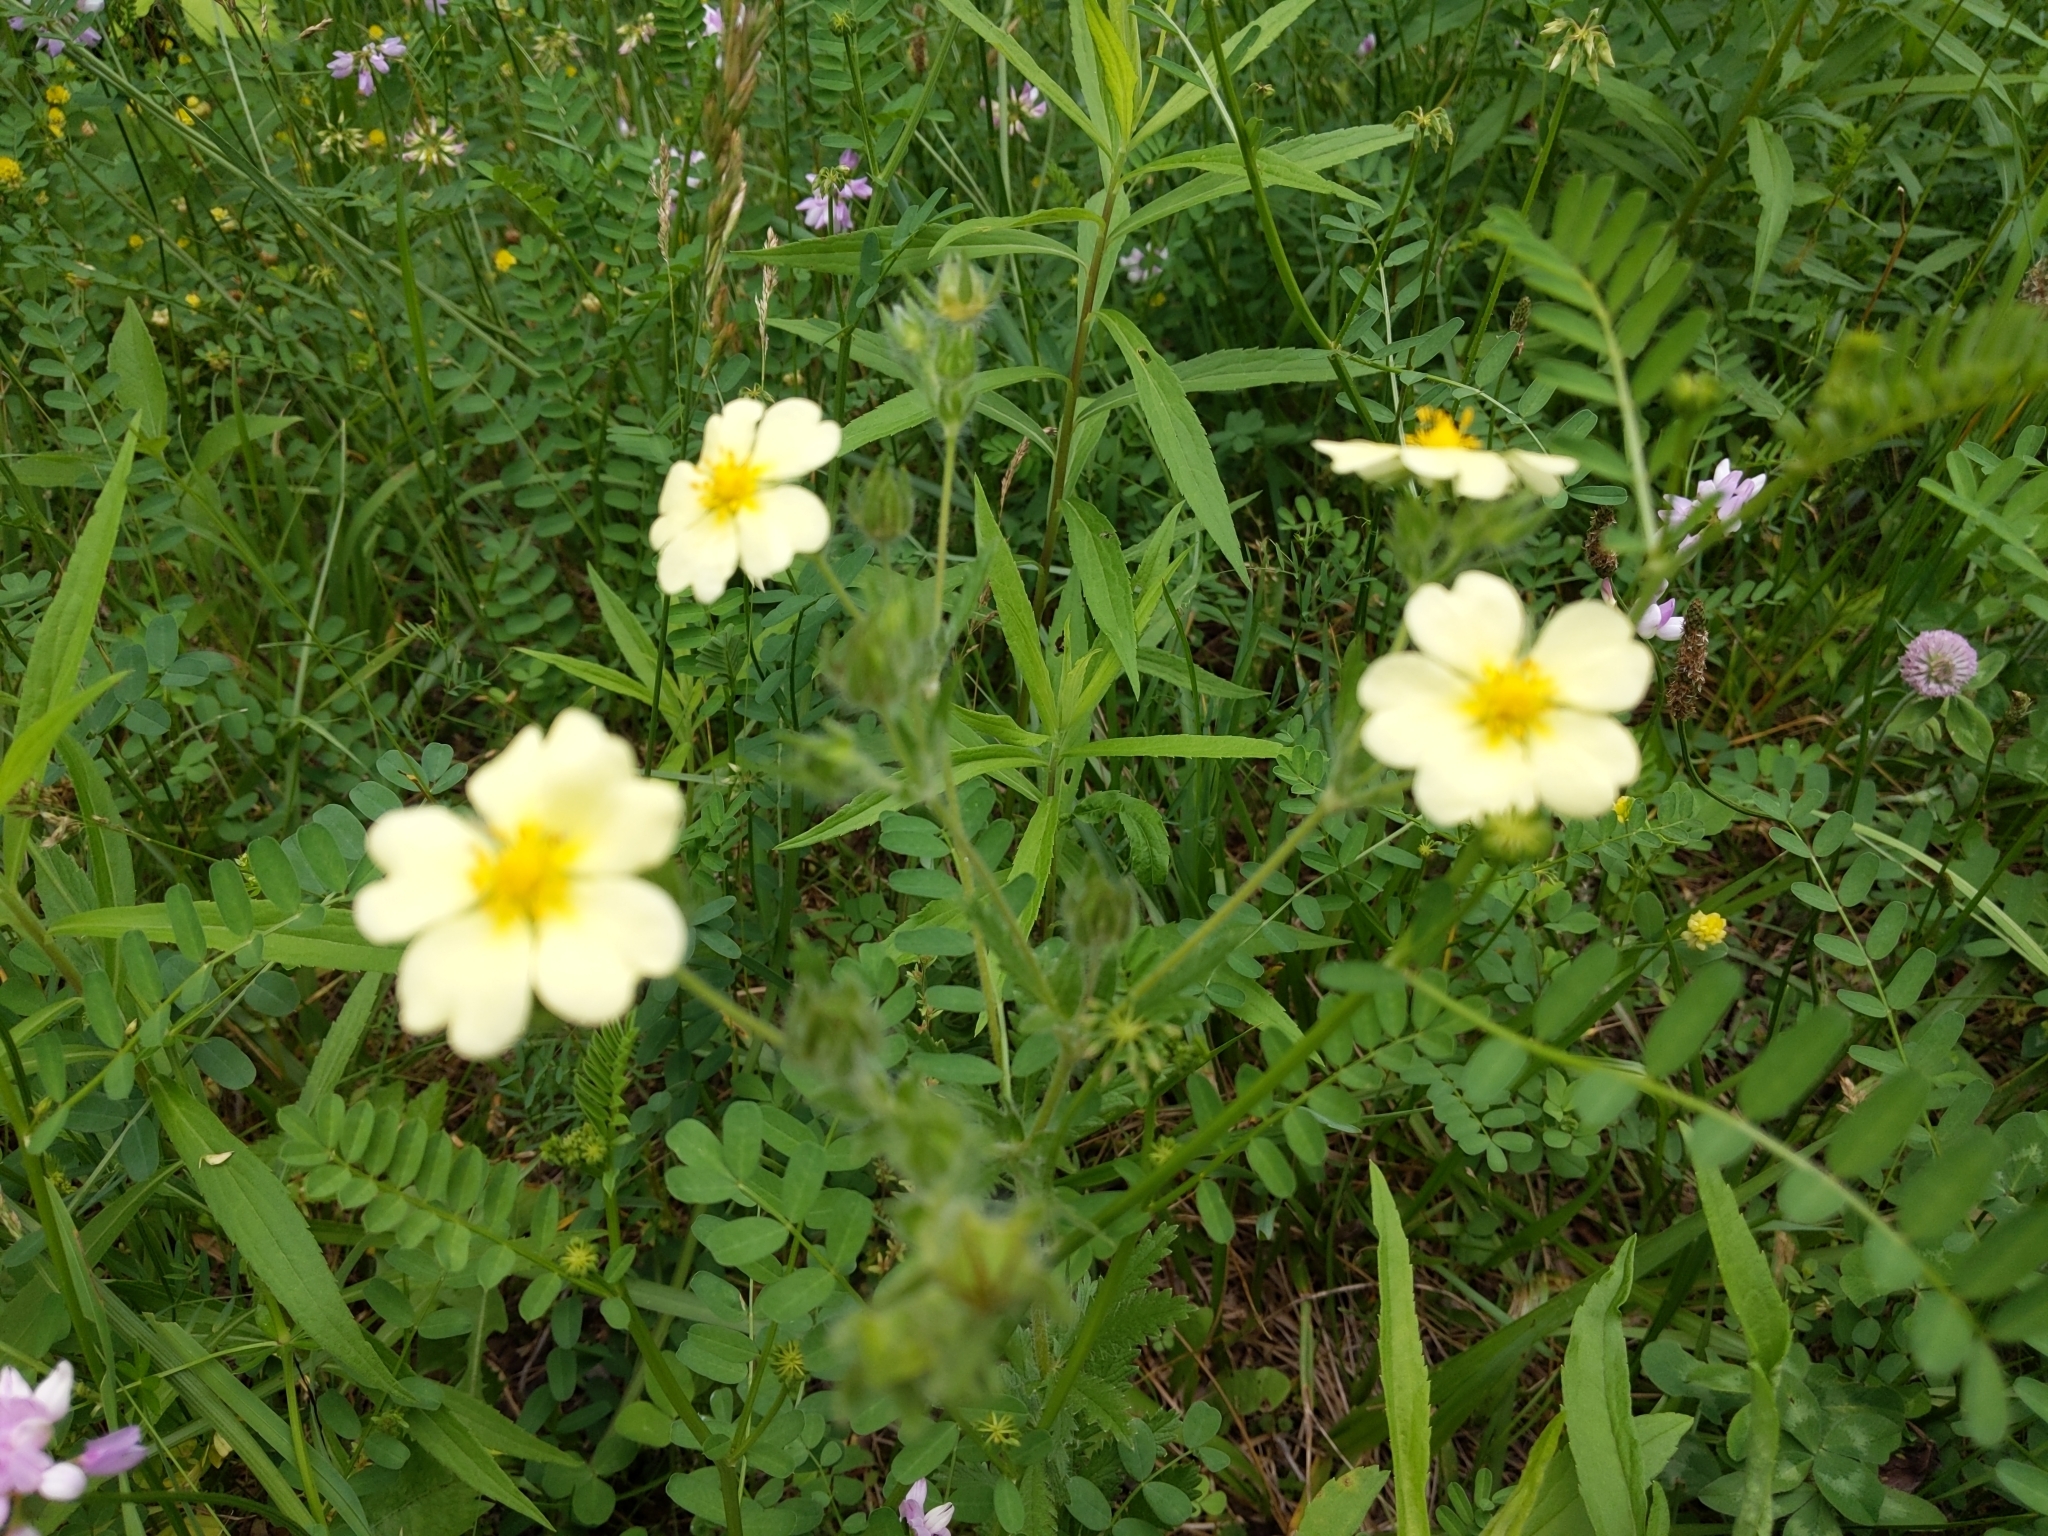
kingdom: Plantae
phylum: Tracheophyta
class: Magnoliopsida
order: Rosales
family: Rosaceae
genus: Potentilla
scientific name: Potentilla recta
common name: Sulphur cinquefoil
